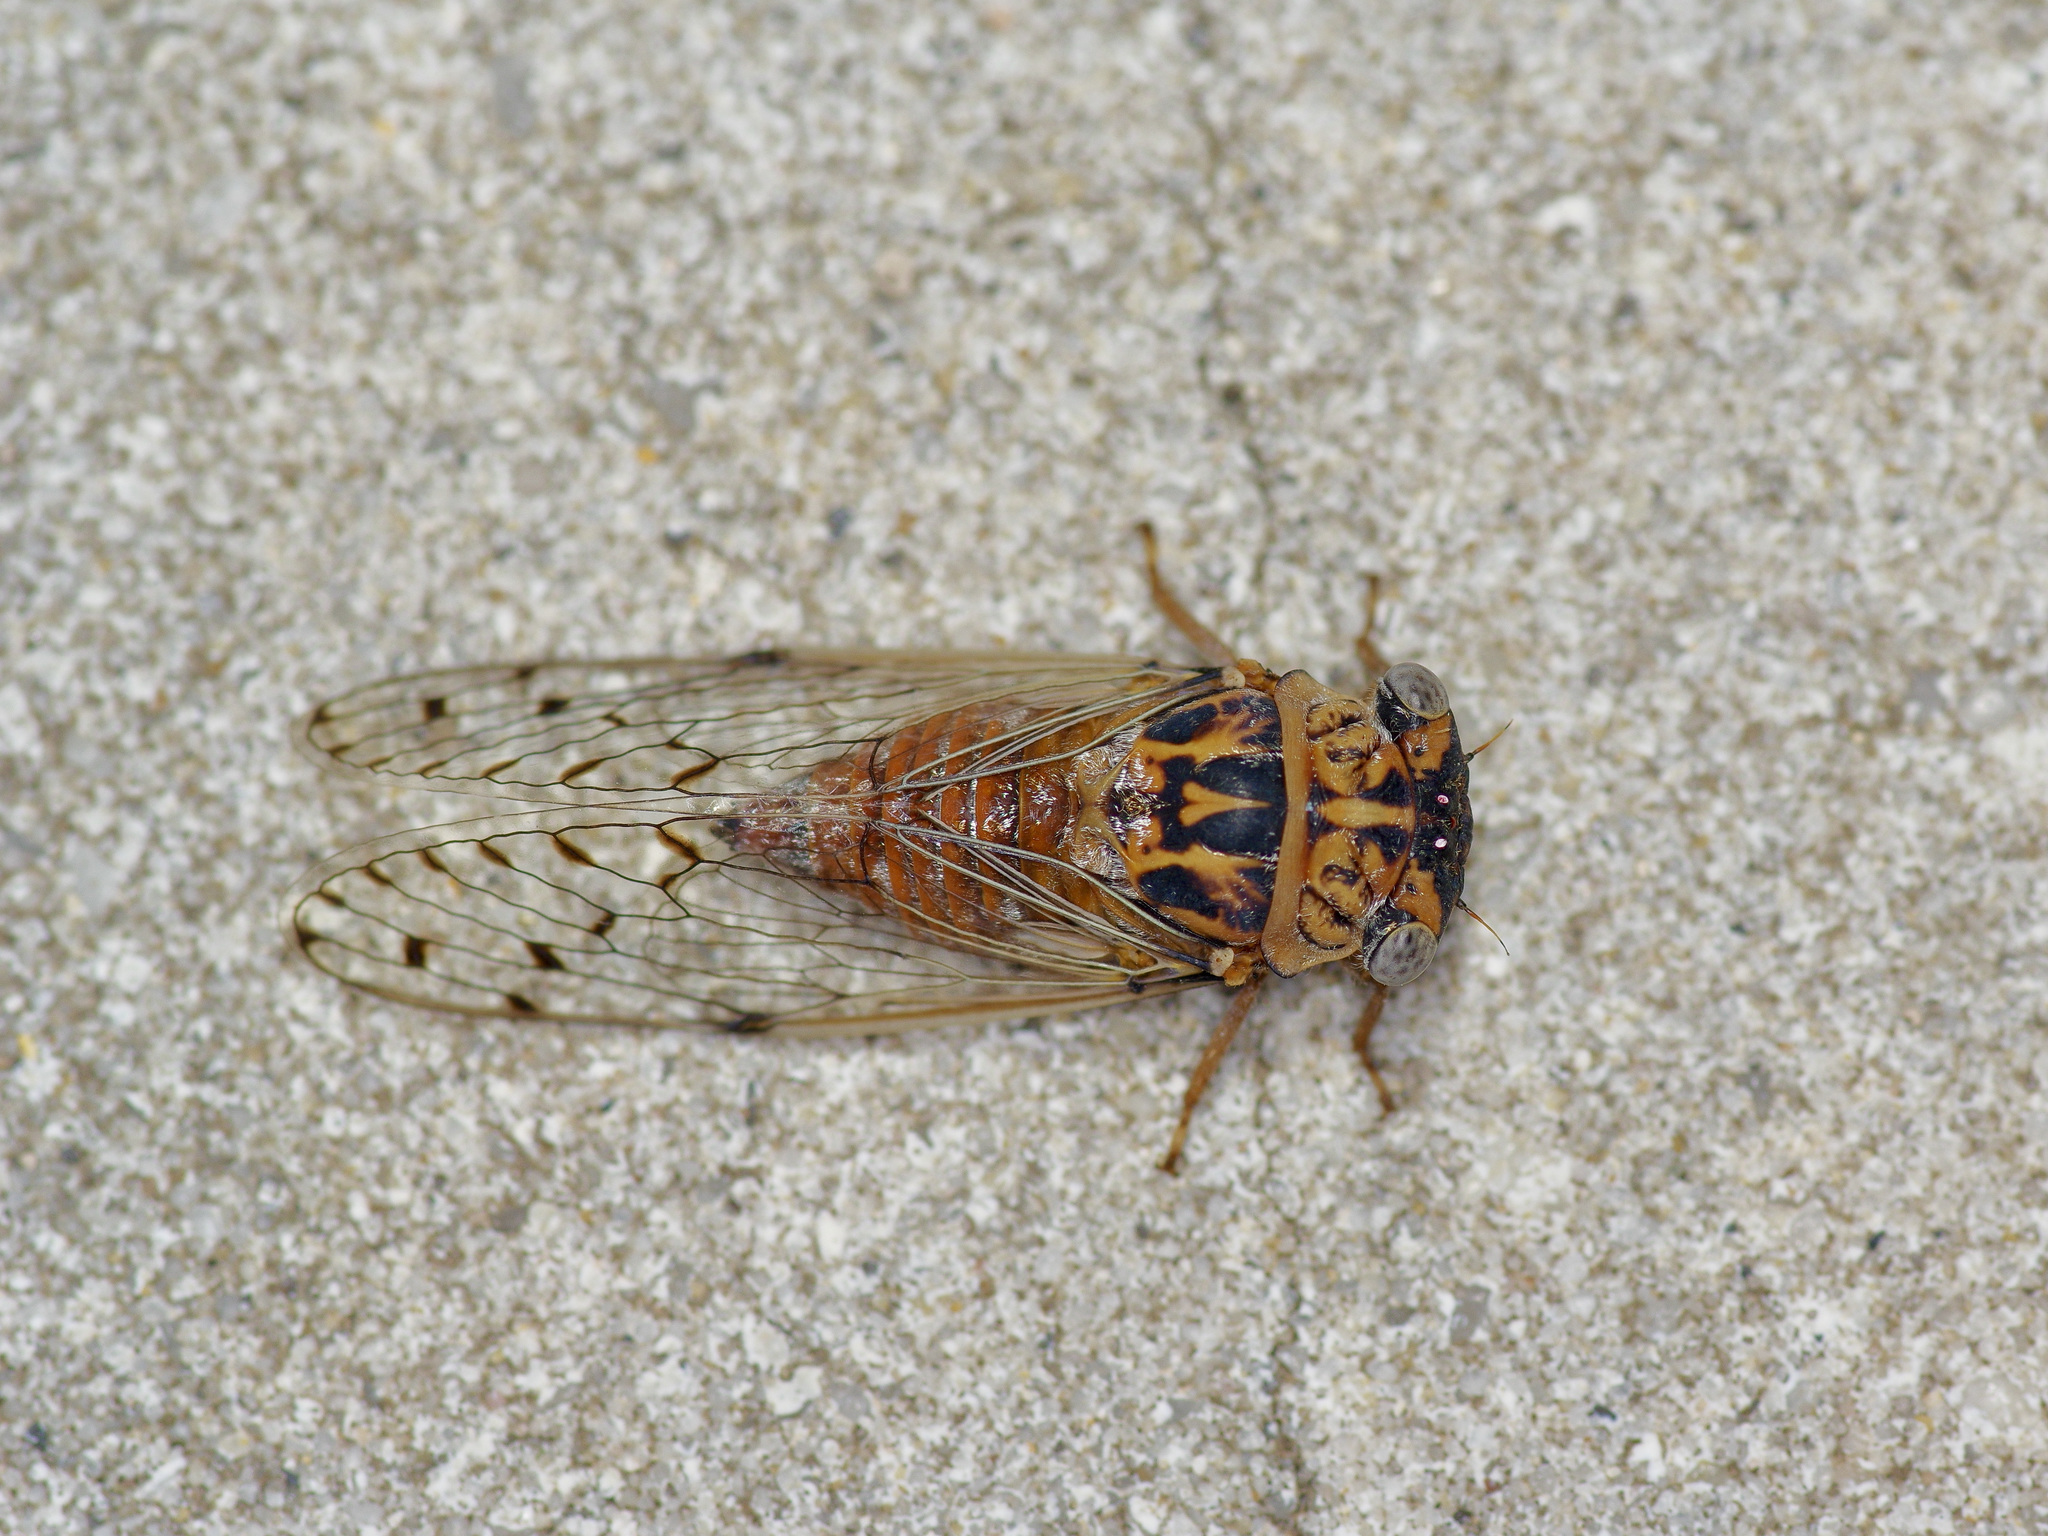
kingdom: Animalia
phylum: Arthropoda
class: Insecta
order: Hemiptera
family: Cicadidae
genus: Pacarina
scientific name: Pacarina puella
